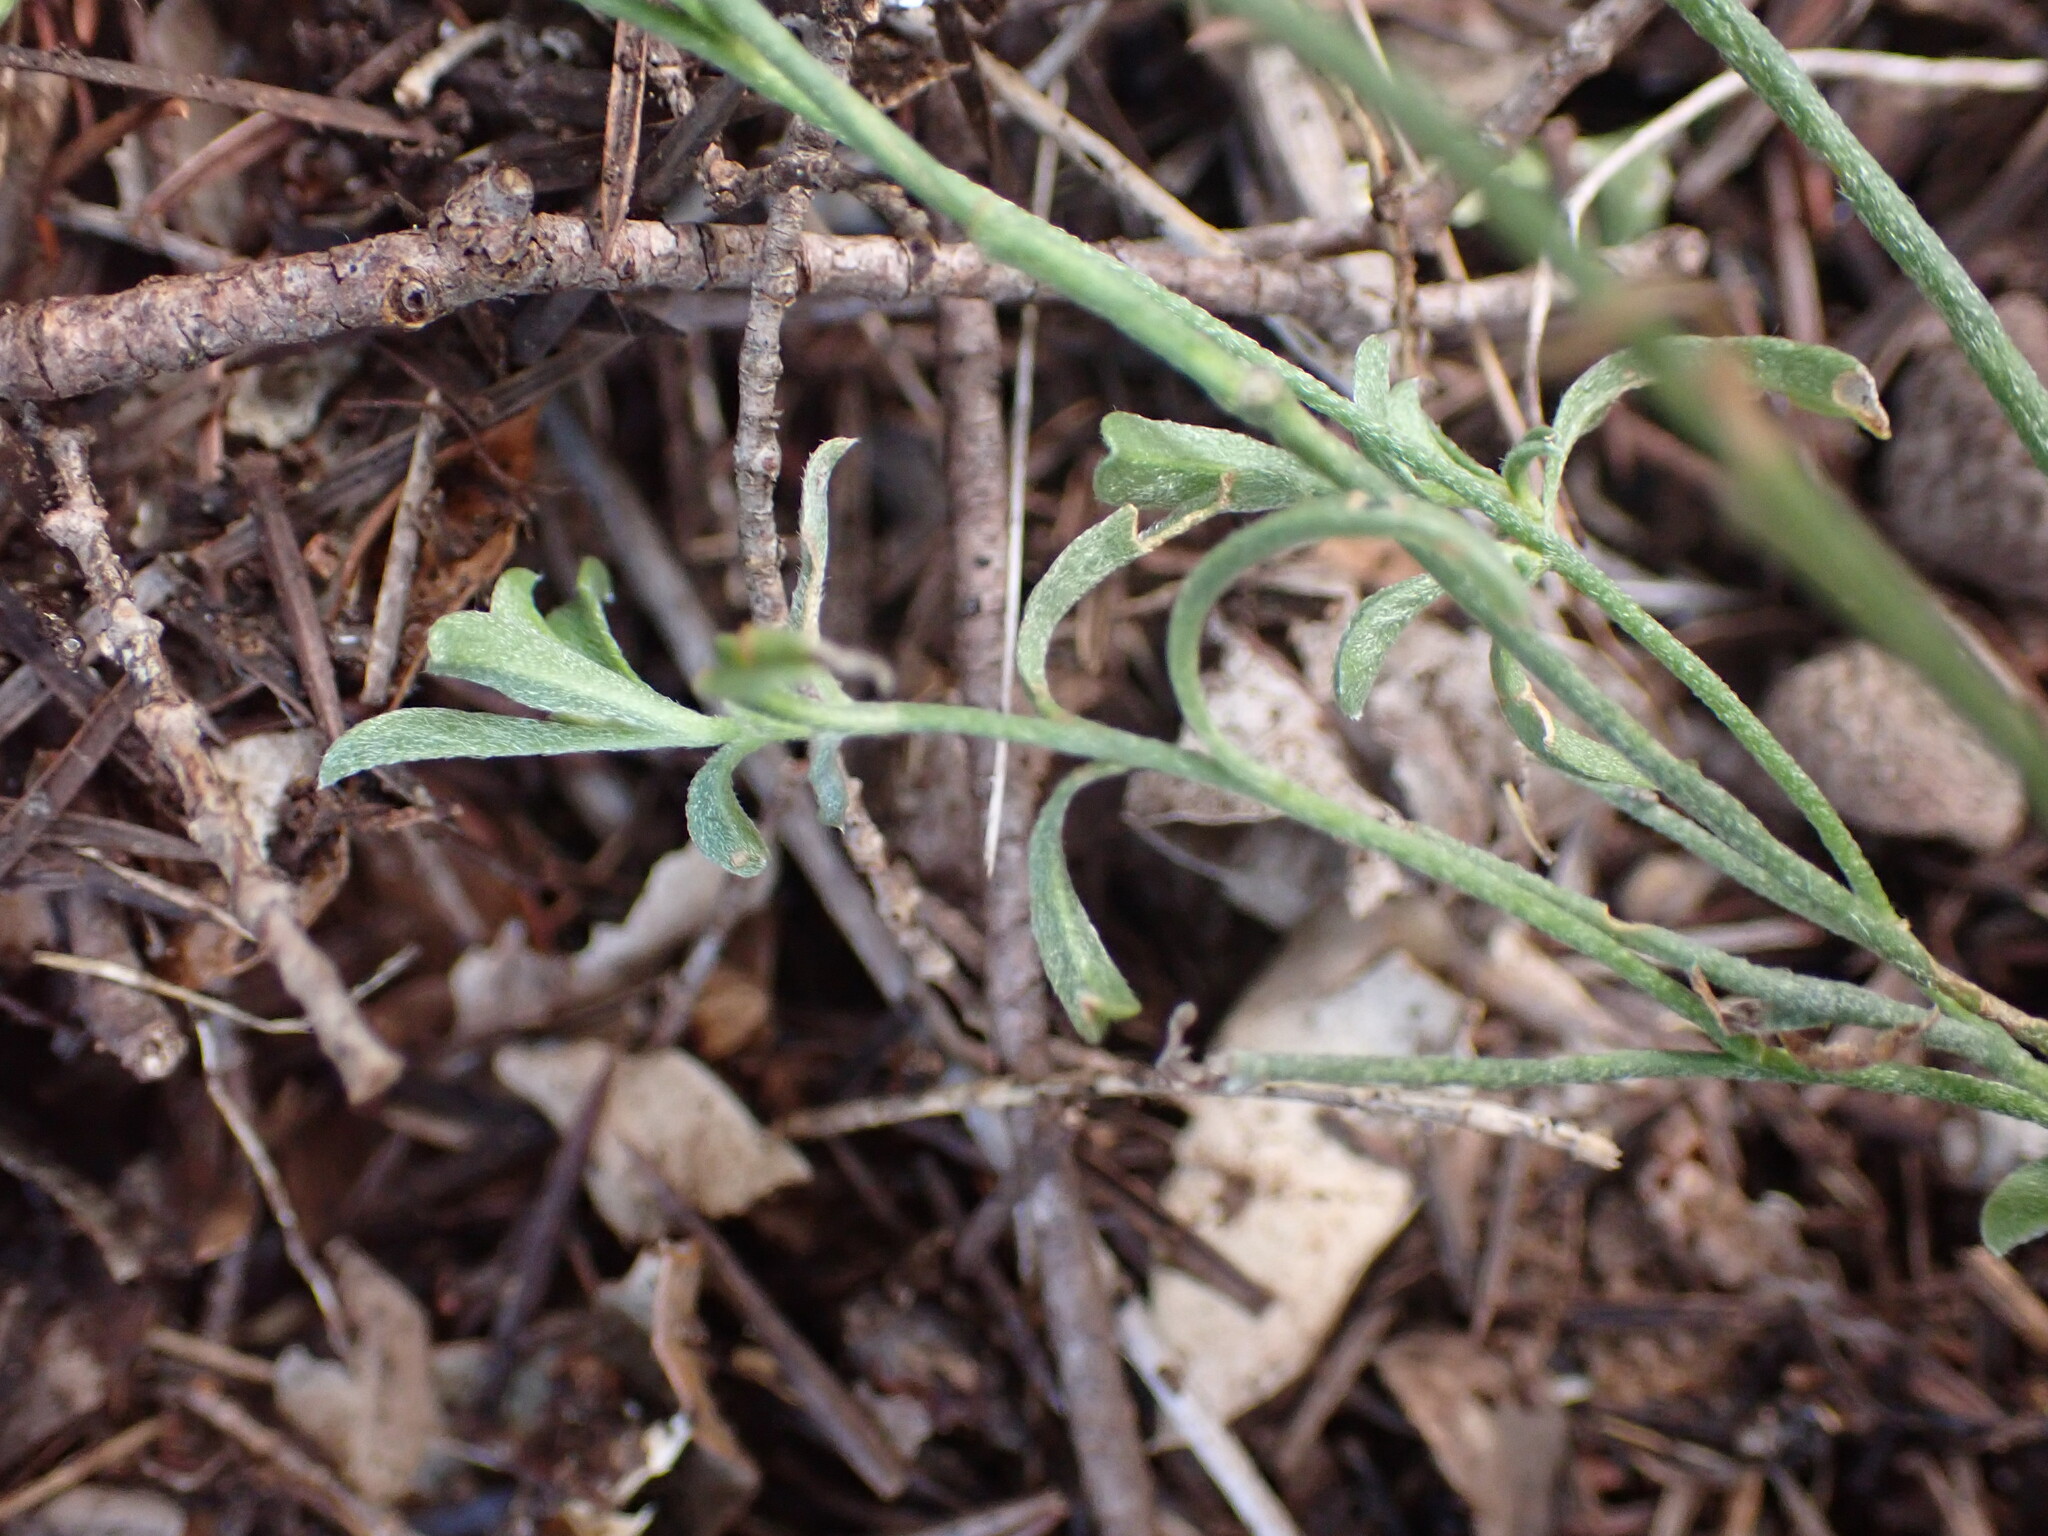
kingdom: Plantae
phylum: Tracheophyta
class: Magnoliopsida
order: Solanales
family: Convolvulaceae
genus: Convolvulus
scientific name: Convolvulus cantabrica
